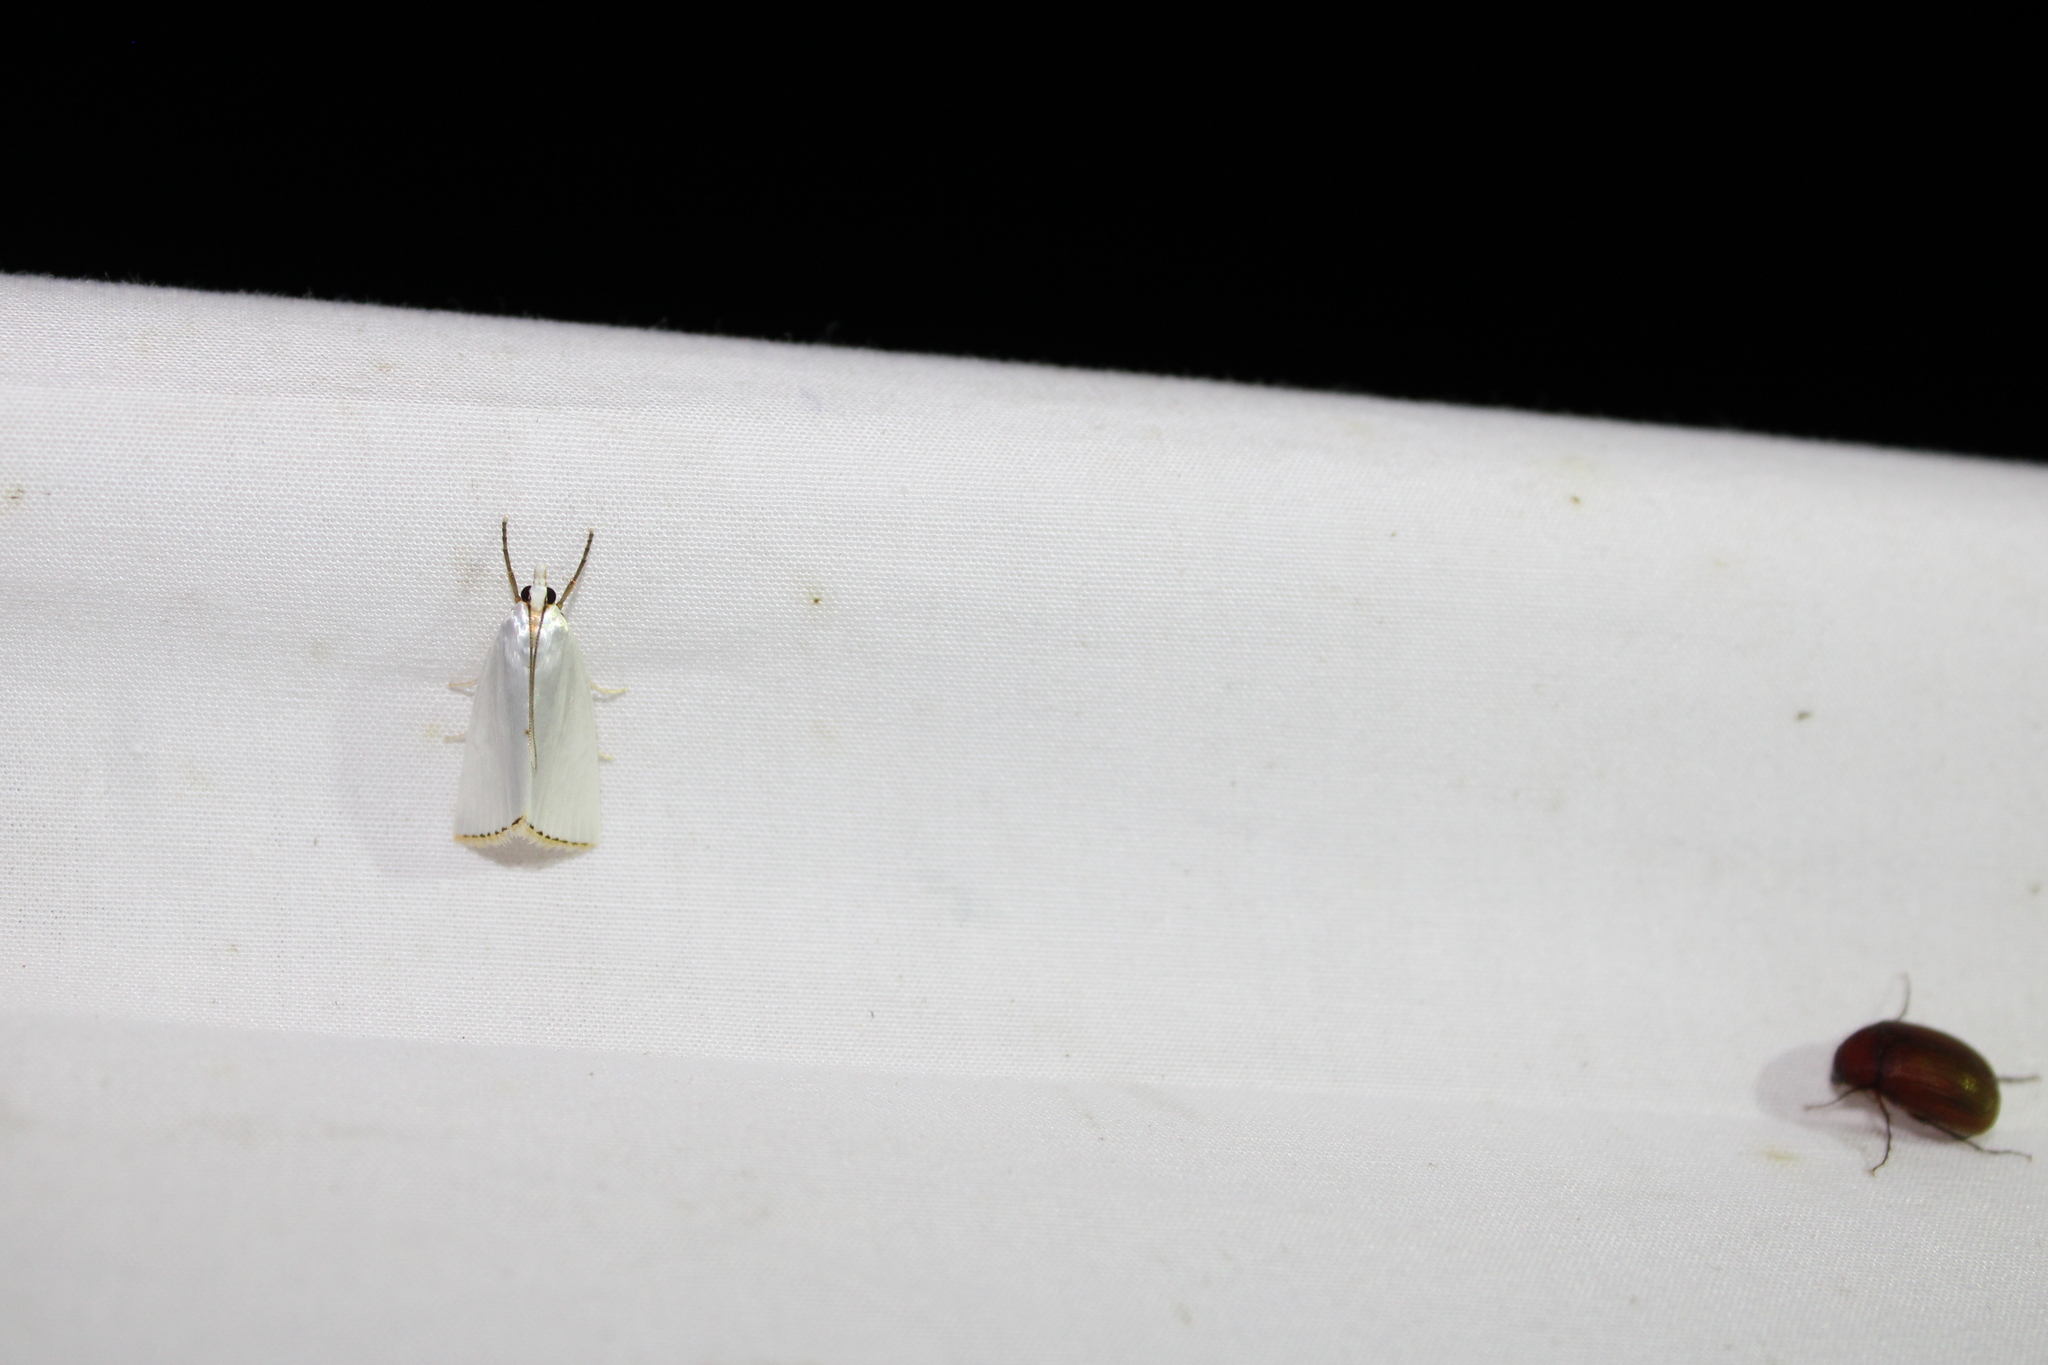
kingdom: Animalia
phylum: Arthropoda
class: Insecta
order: Lepidoptera
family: Crambidae
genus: Argyria
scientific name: Argyria nivalis
